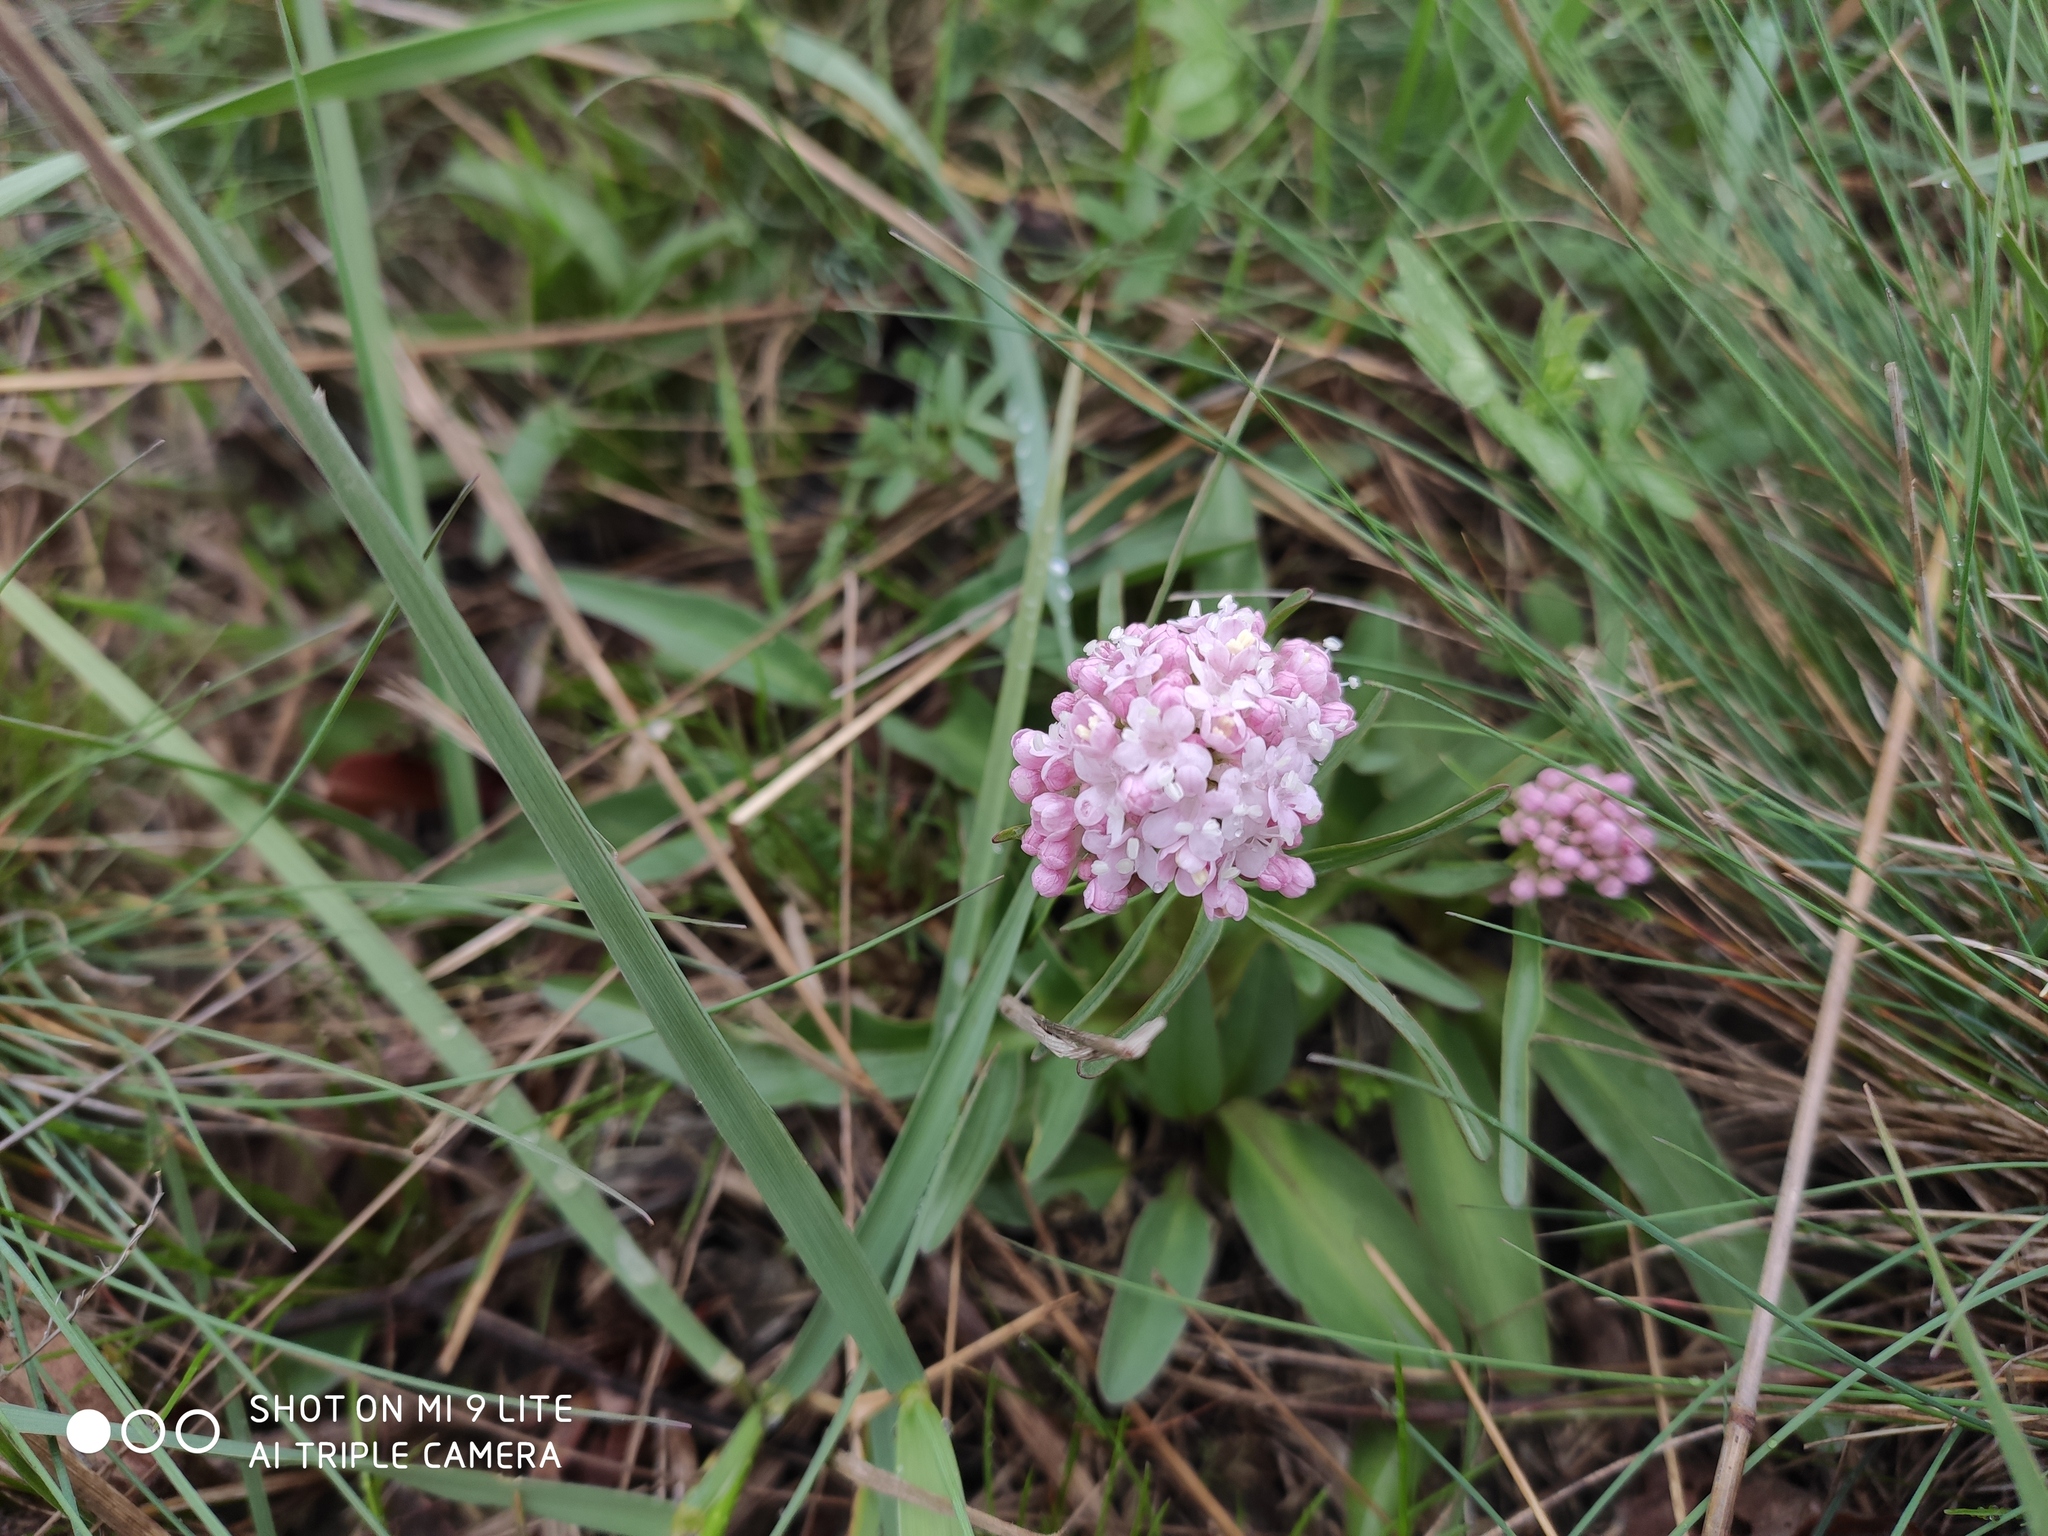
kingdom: Plantae
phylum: Tracheophyta
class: Magnoliopsida
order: Dipsacales
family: Caprifoliaceae
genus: Valeriana
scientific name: Valeriana tuberosa
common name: Tuberous valerian
